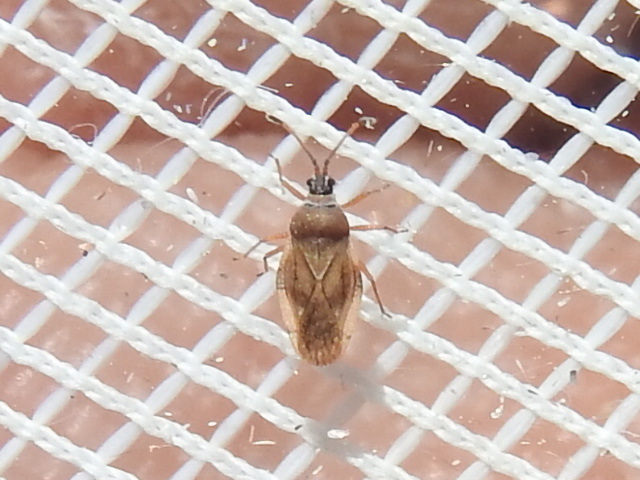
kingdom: Animalia
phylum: Arthropoda
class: Insecta
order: Hemiptera
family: Tingidae
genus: Leptoypha
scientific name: Leptoypha elliptica
